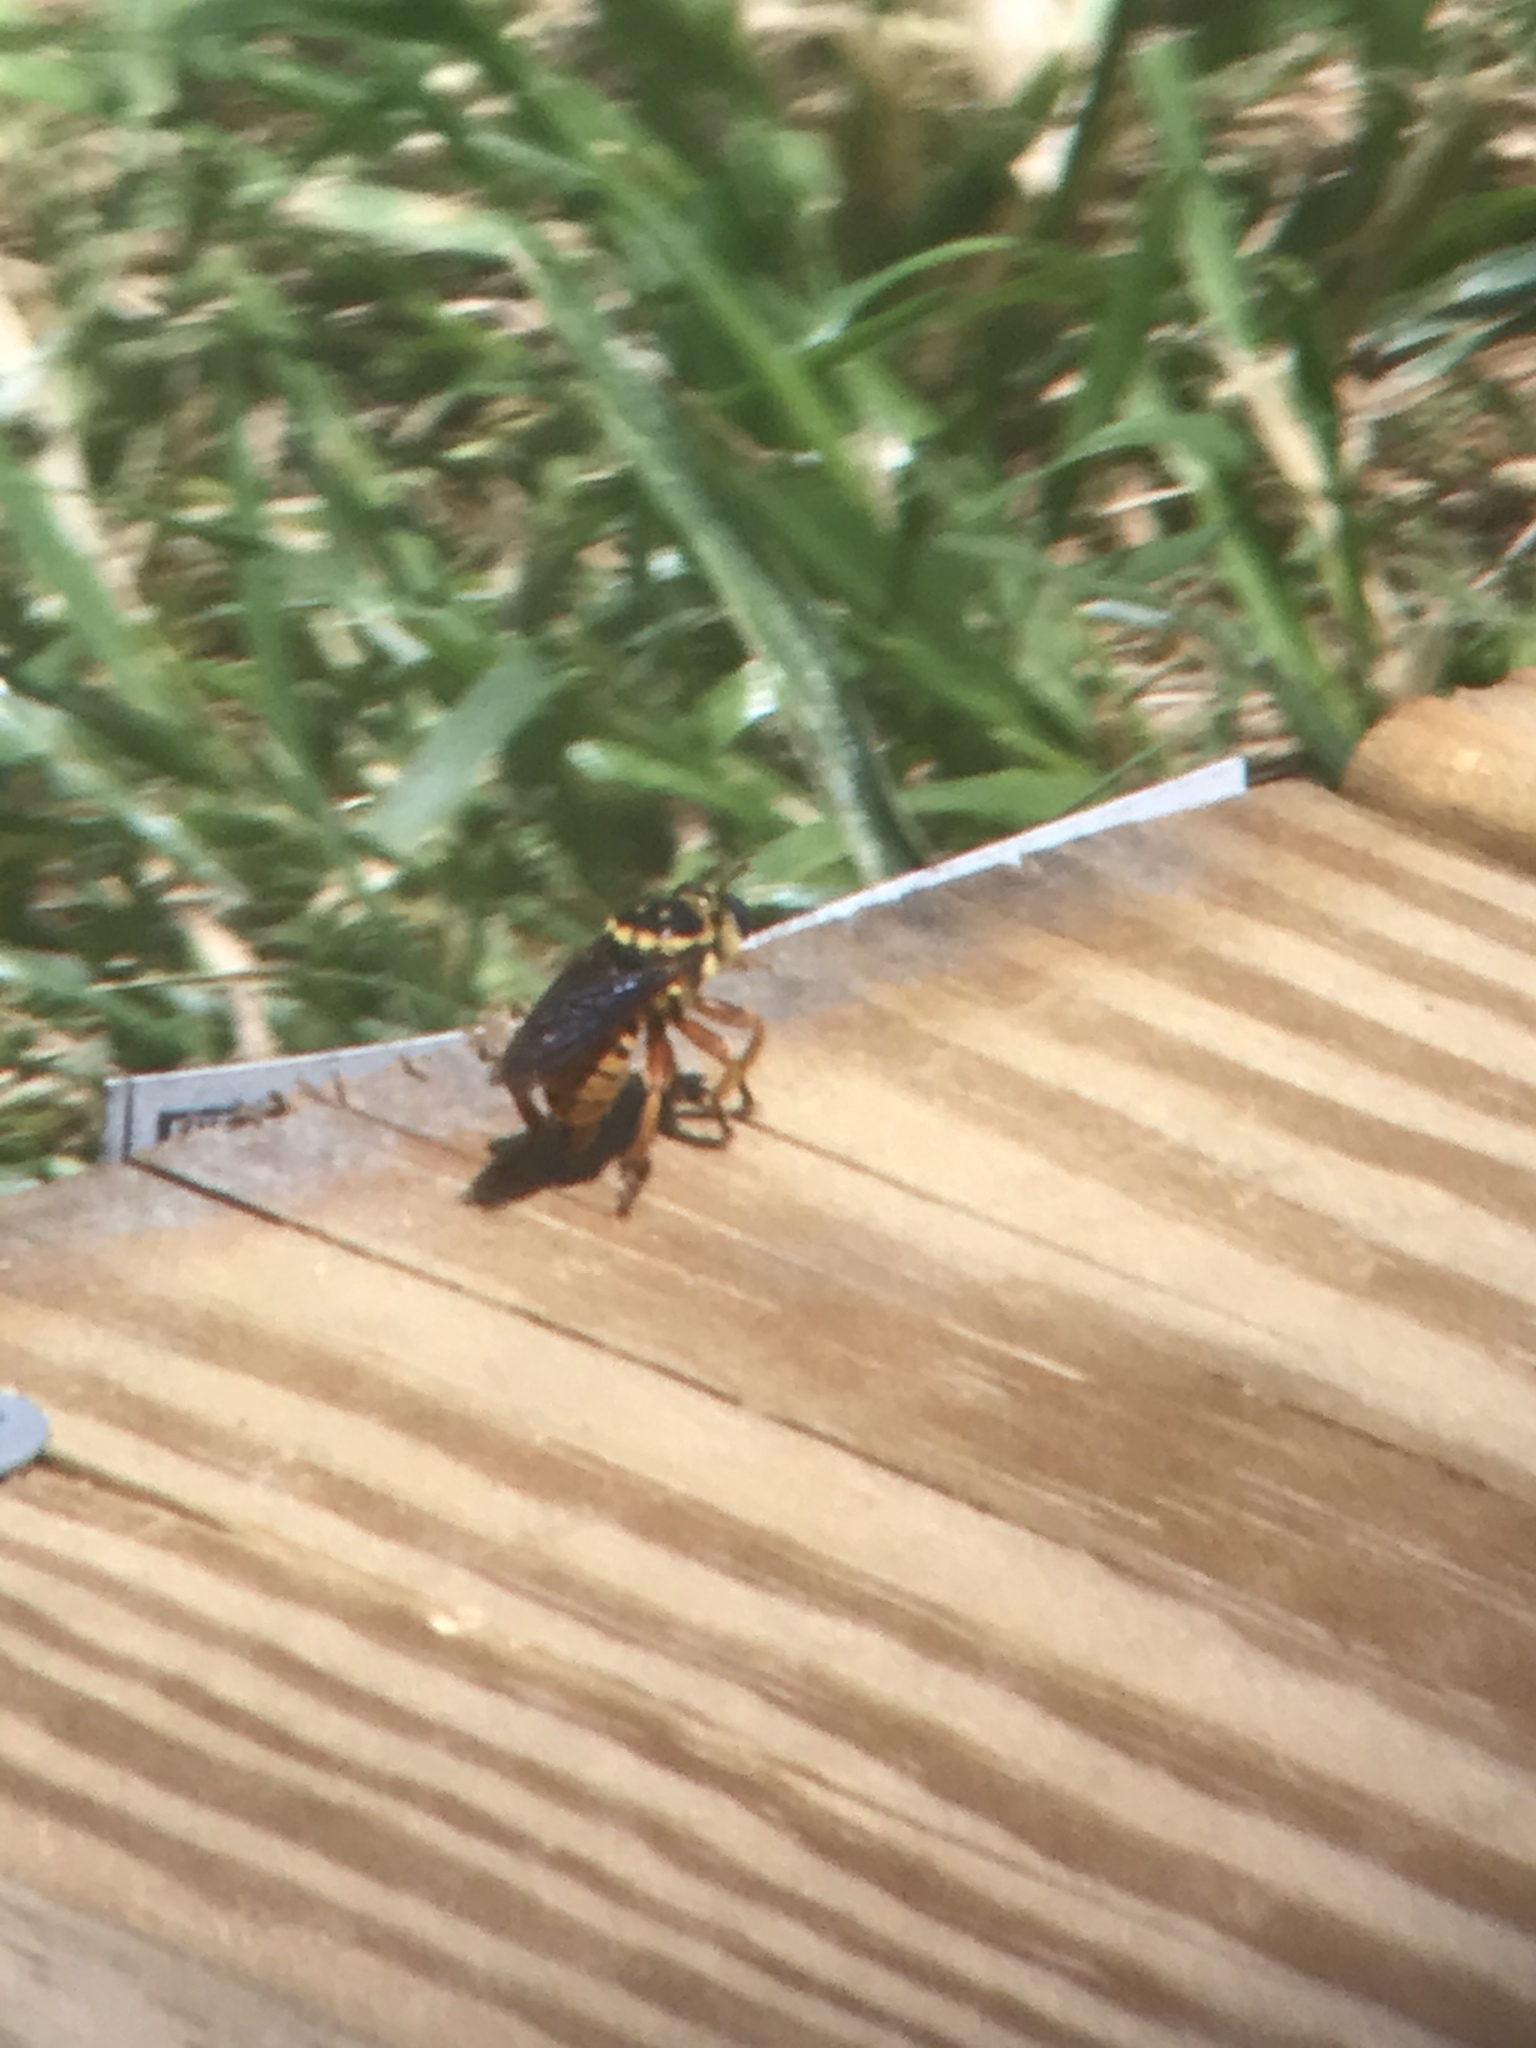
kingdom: Animalia
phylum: Arthropoda
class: Insecta
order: Diptera
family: Asilidae
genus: Laphria
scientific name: Laphria saffrana
